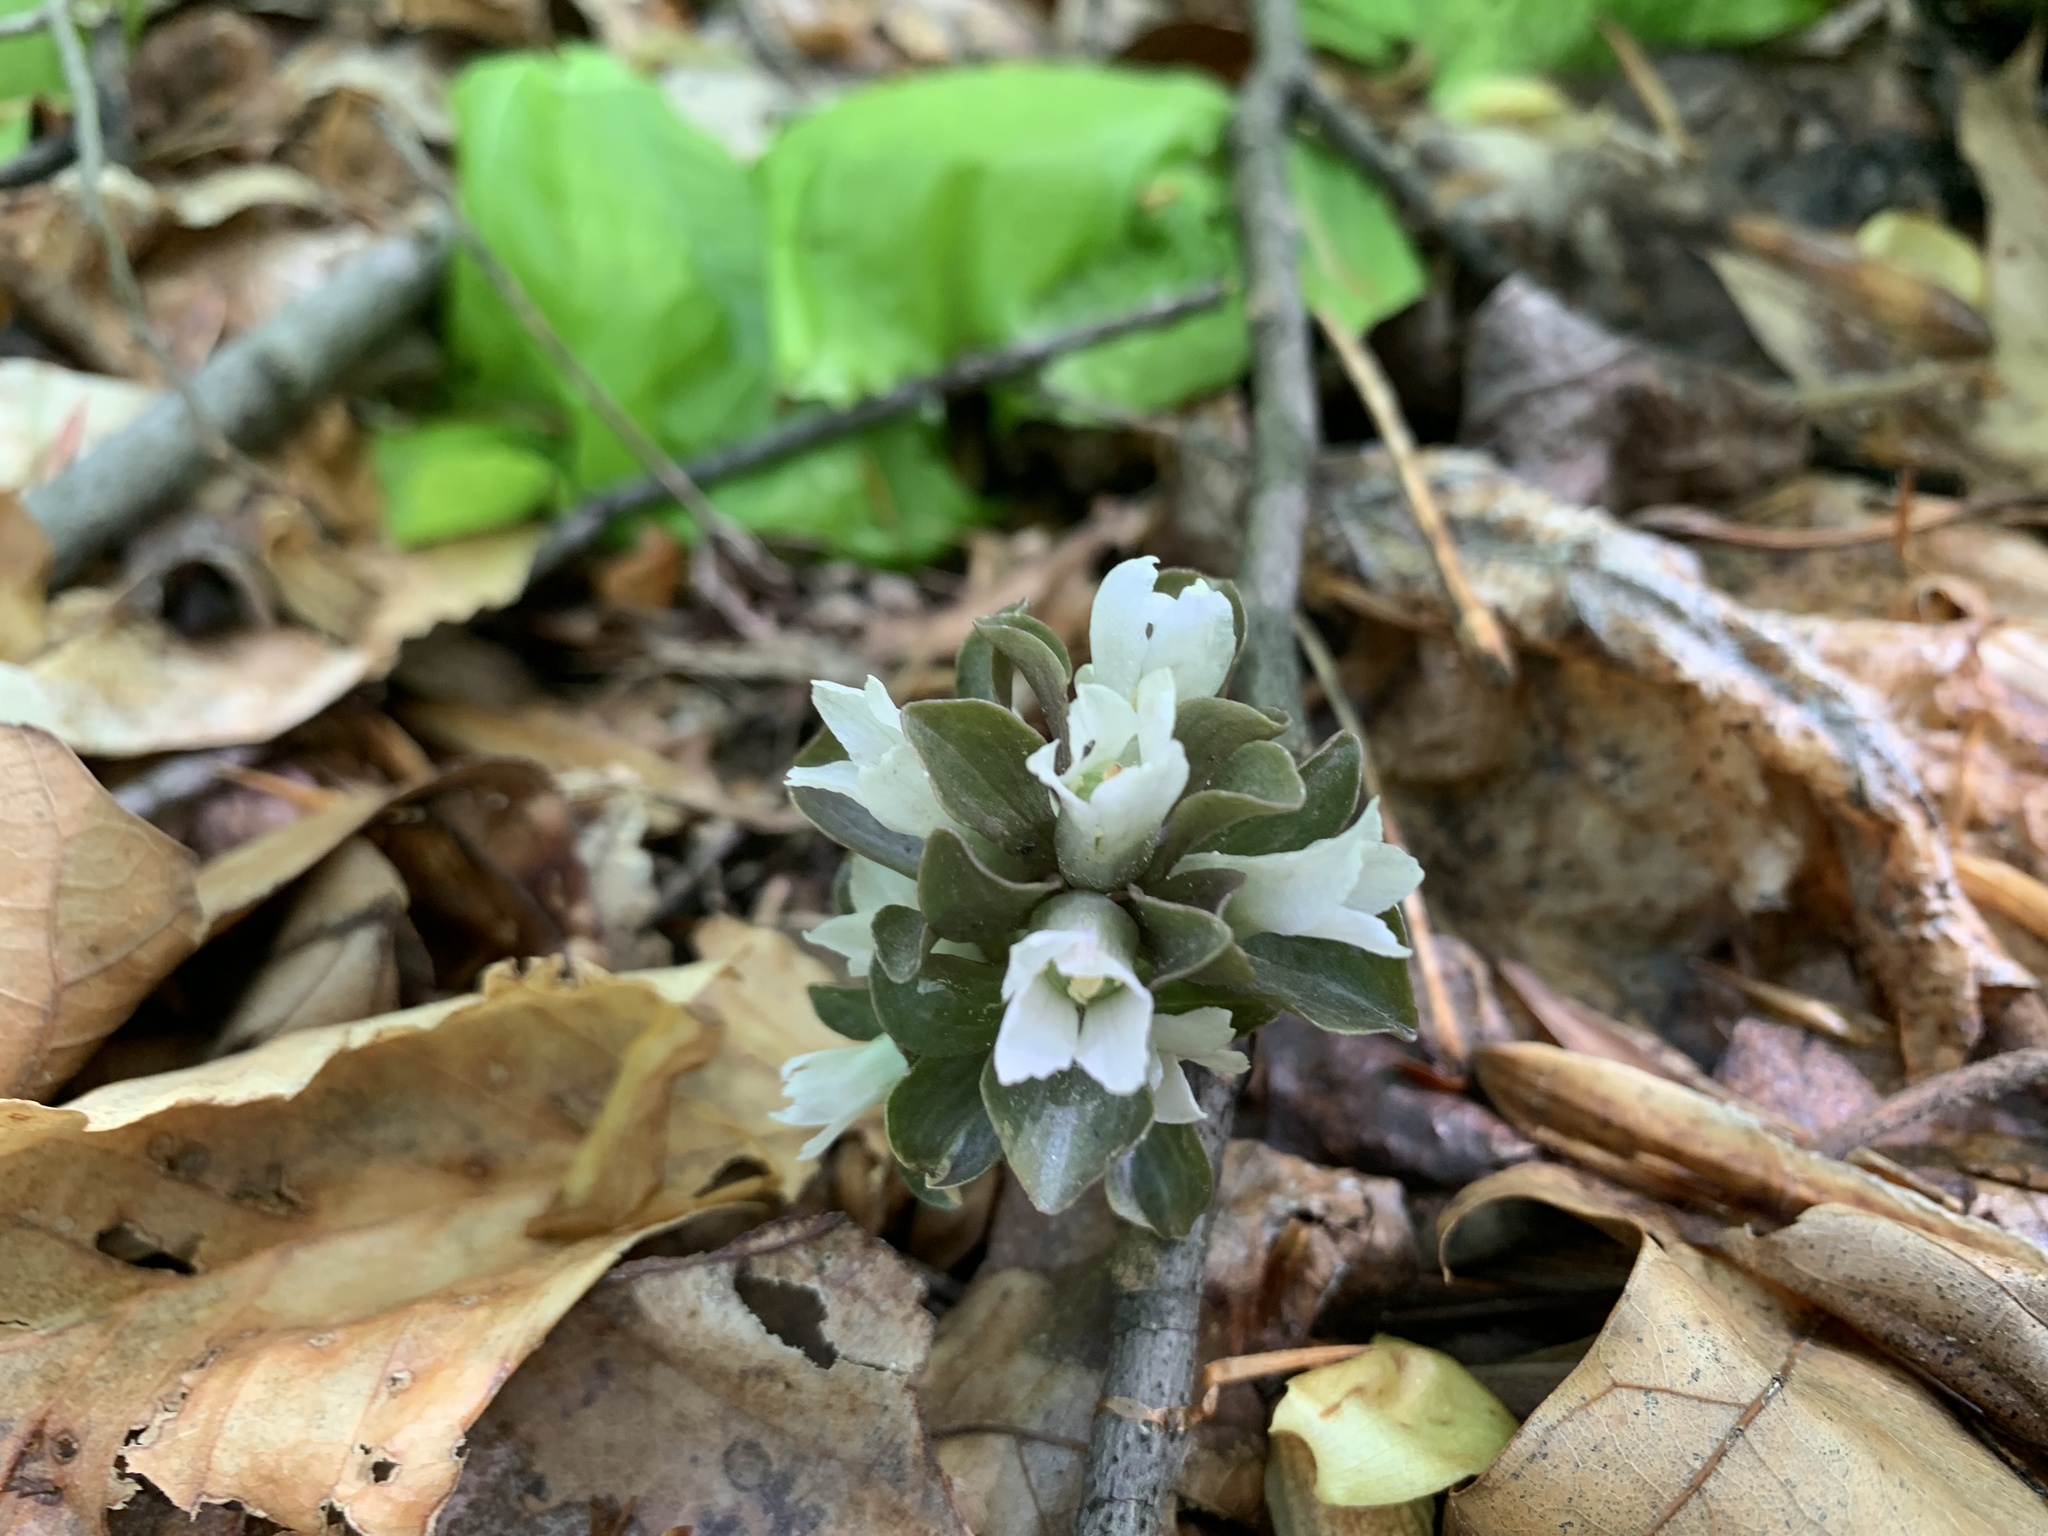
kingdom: Plantae
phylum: Tracheophyta
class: Magnoliopsida
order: Gentianales
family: Gentianaceae
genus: Obolaria
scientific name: Obolaria virginica
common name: Pennywort
